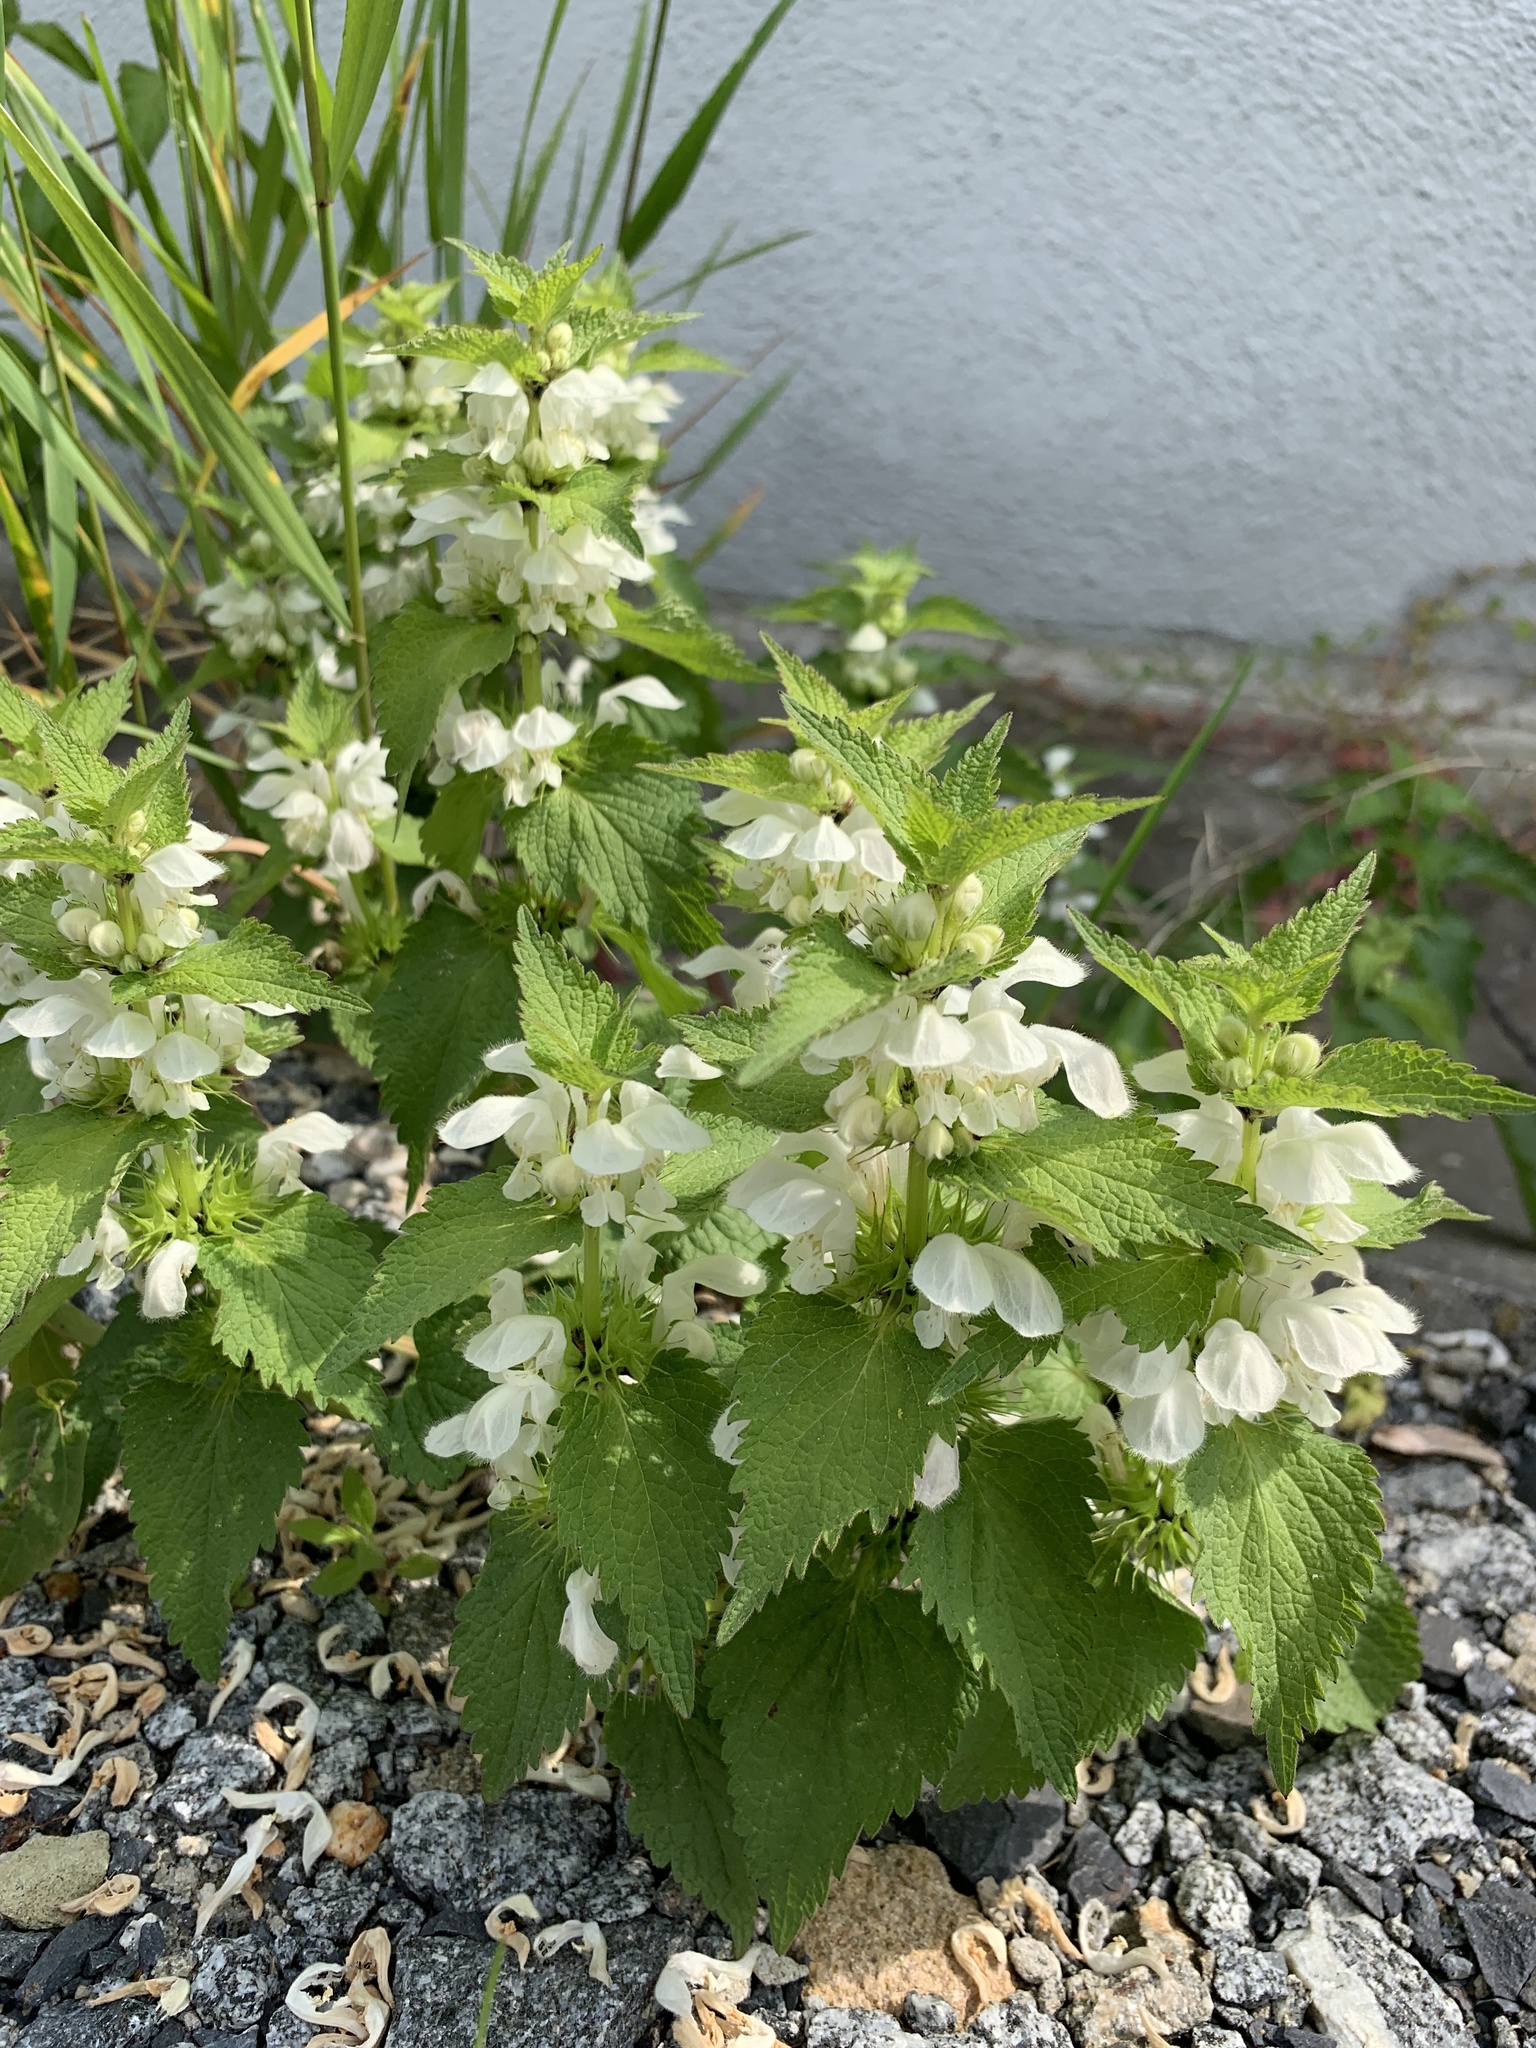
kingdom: Plantae
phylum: Tracheophyta
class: Magnoliopsida
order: Lamiales
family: Lamiaceae
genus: Lamium
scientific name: Lamium album
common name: White dead-nettle
